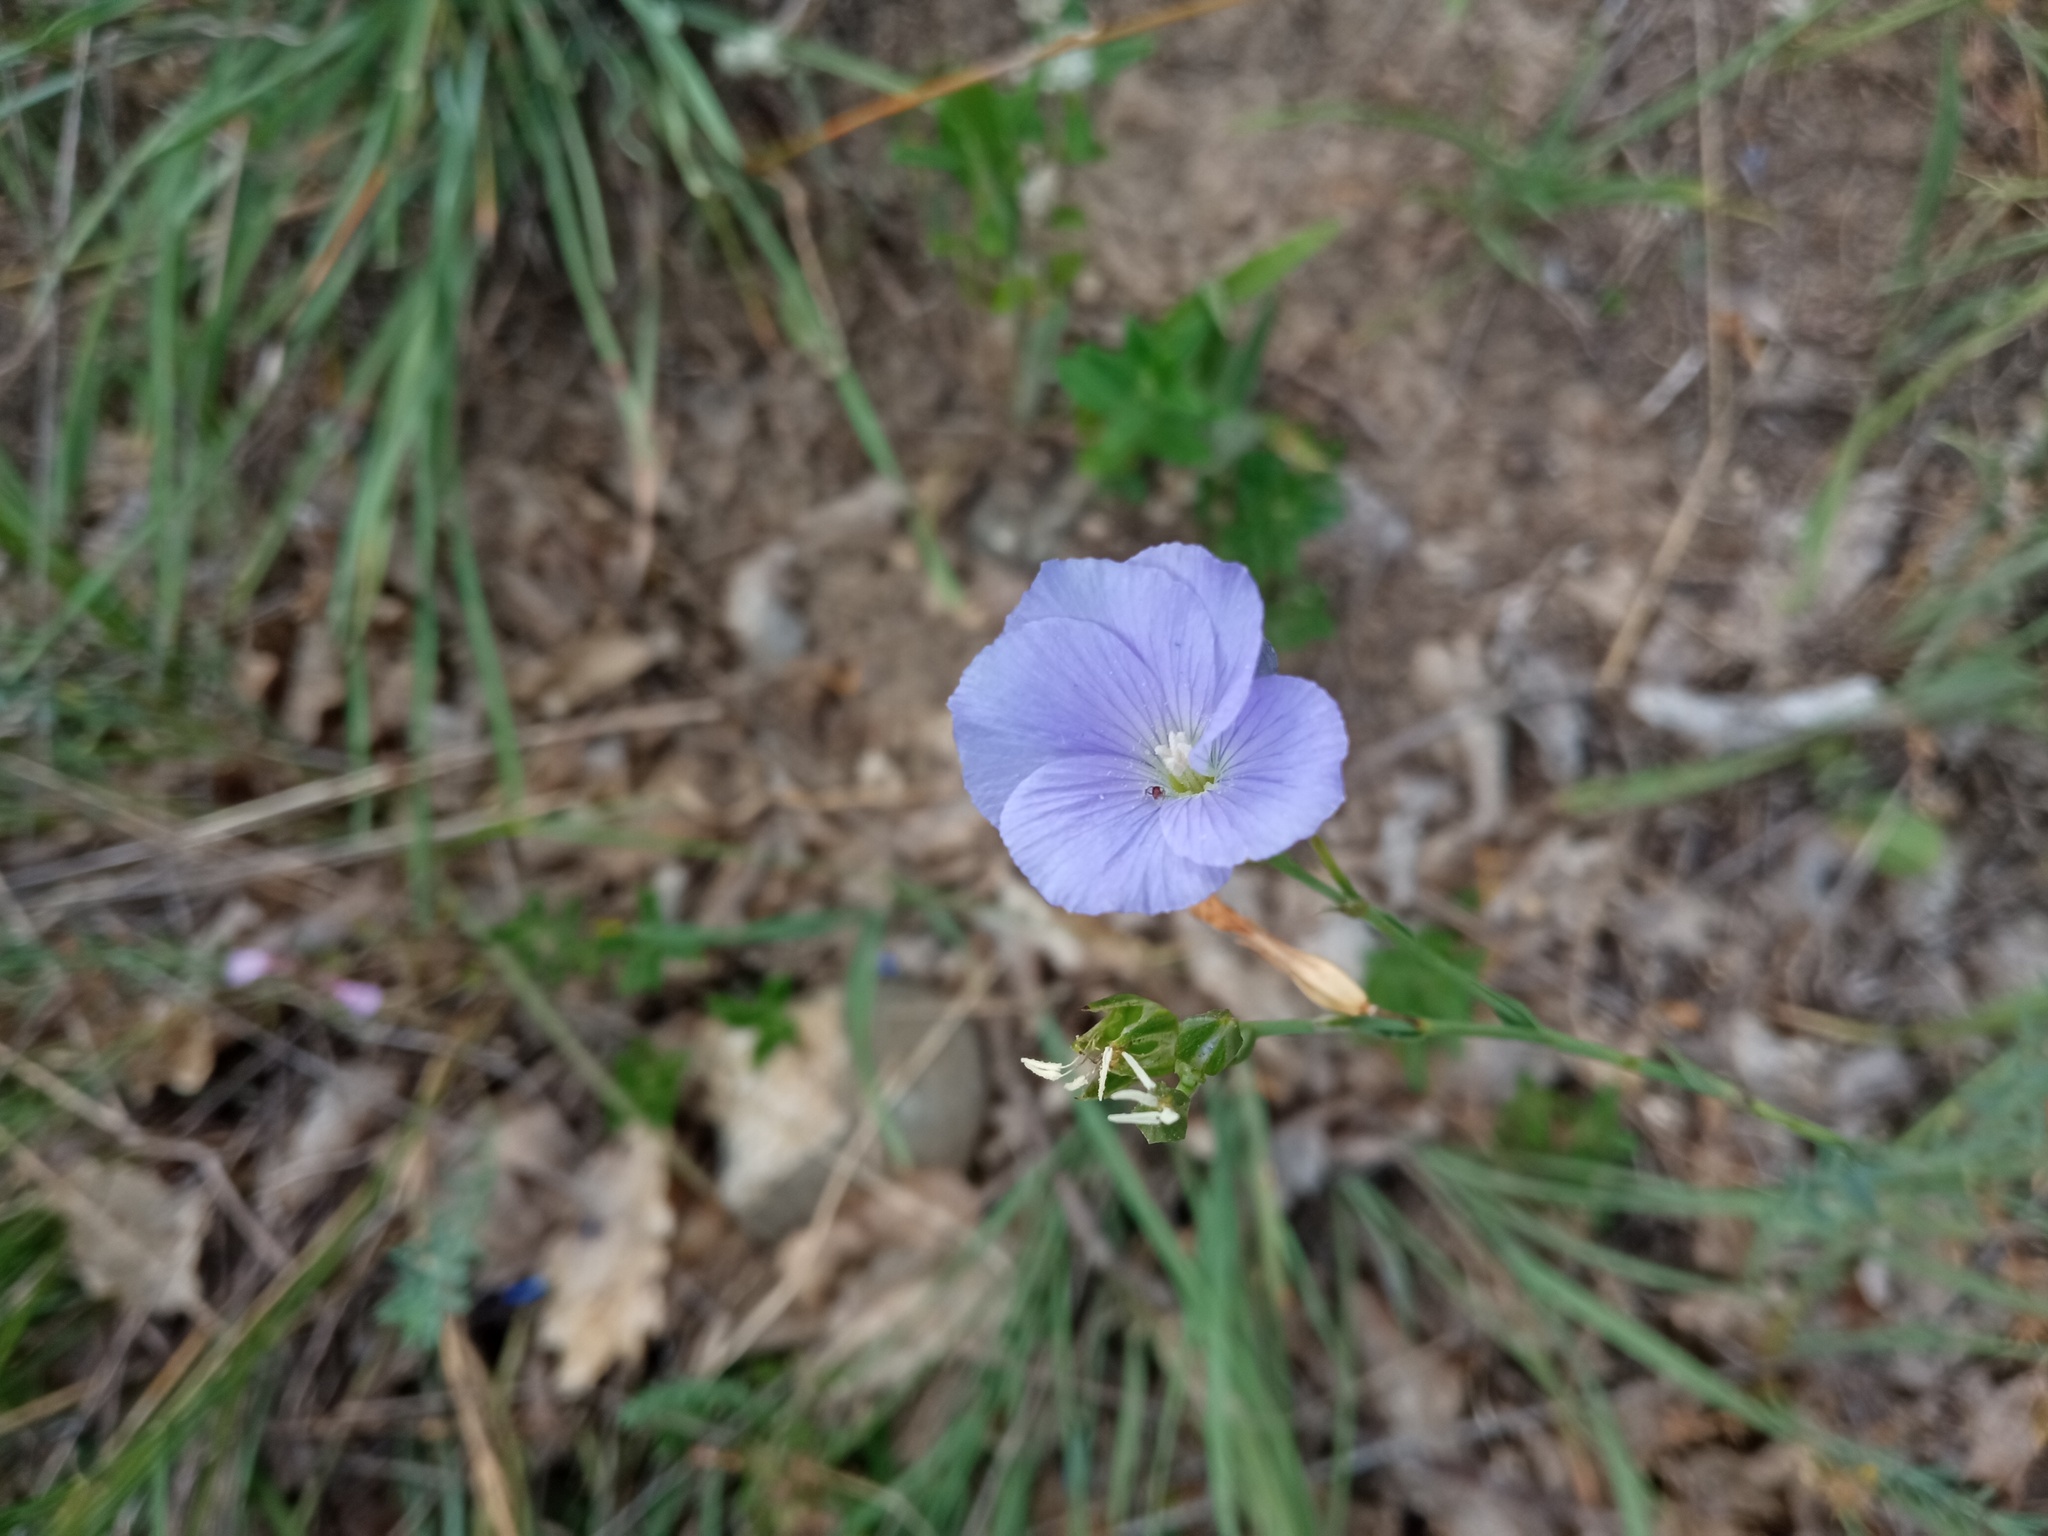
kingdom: Plantae
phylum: Tracheophyta
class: Magnoliopsida
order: Malpighiales
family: Linaceae
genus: Linum
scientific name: Linum narbonense
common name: Flax
